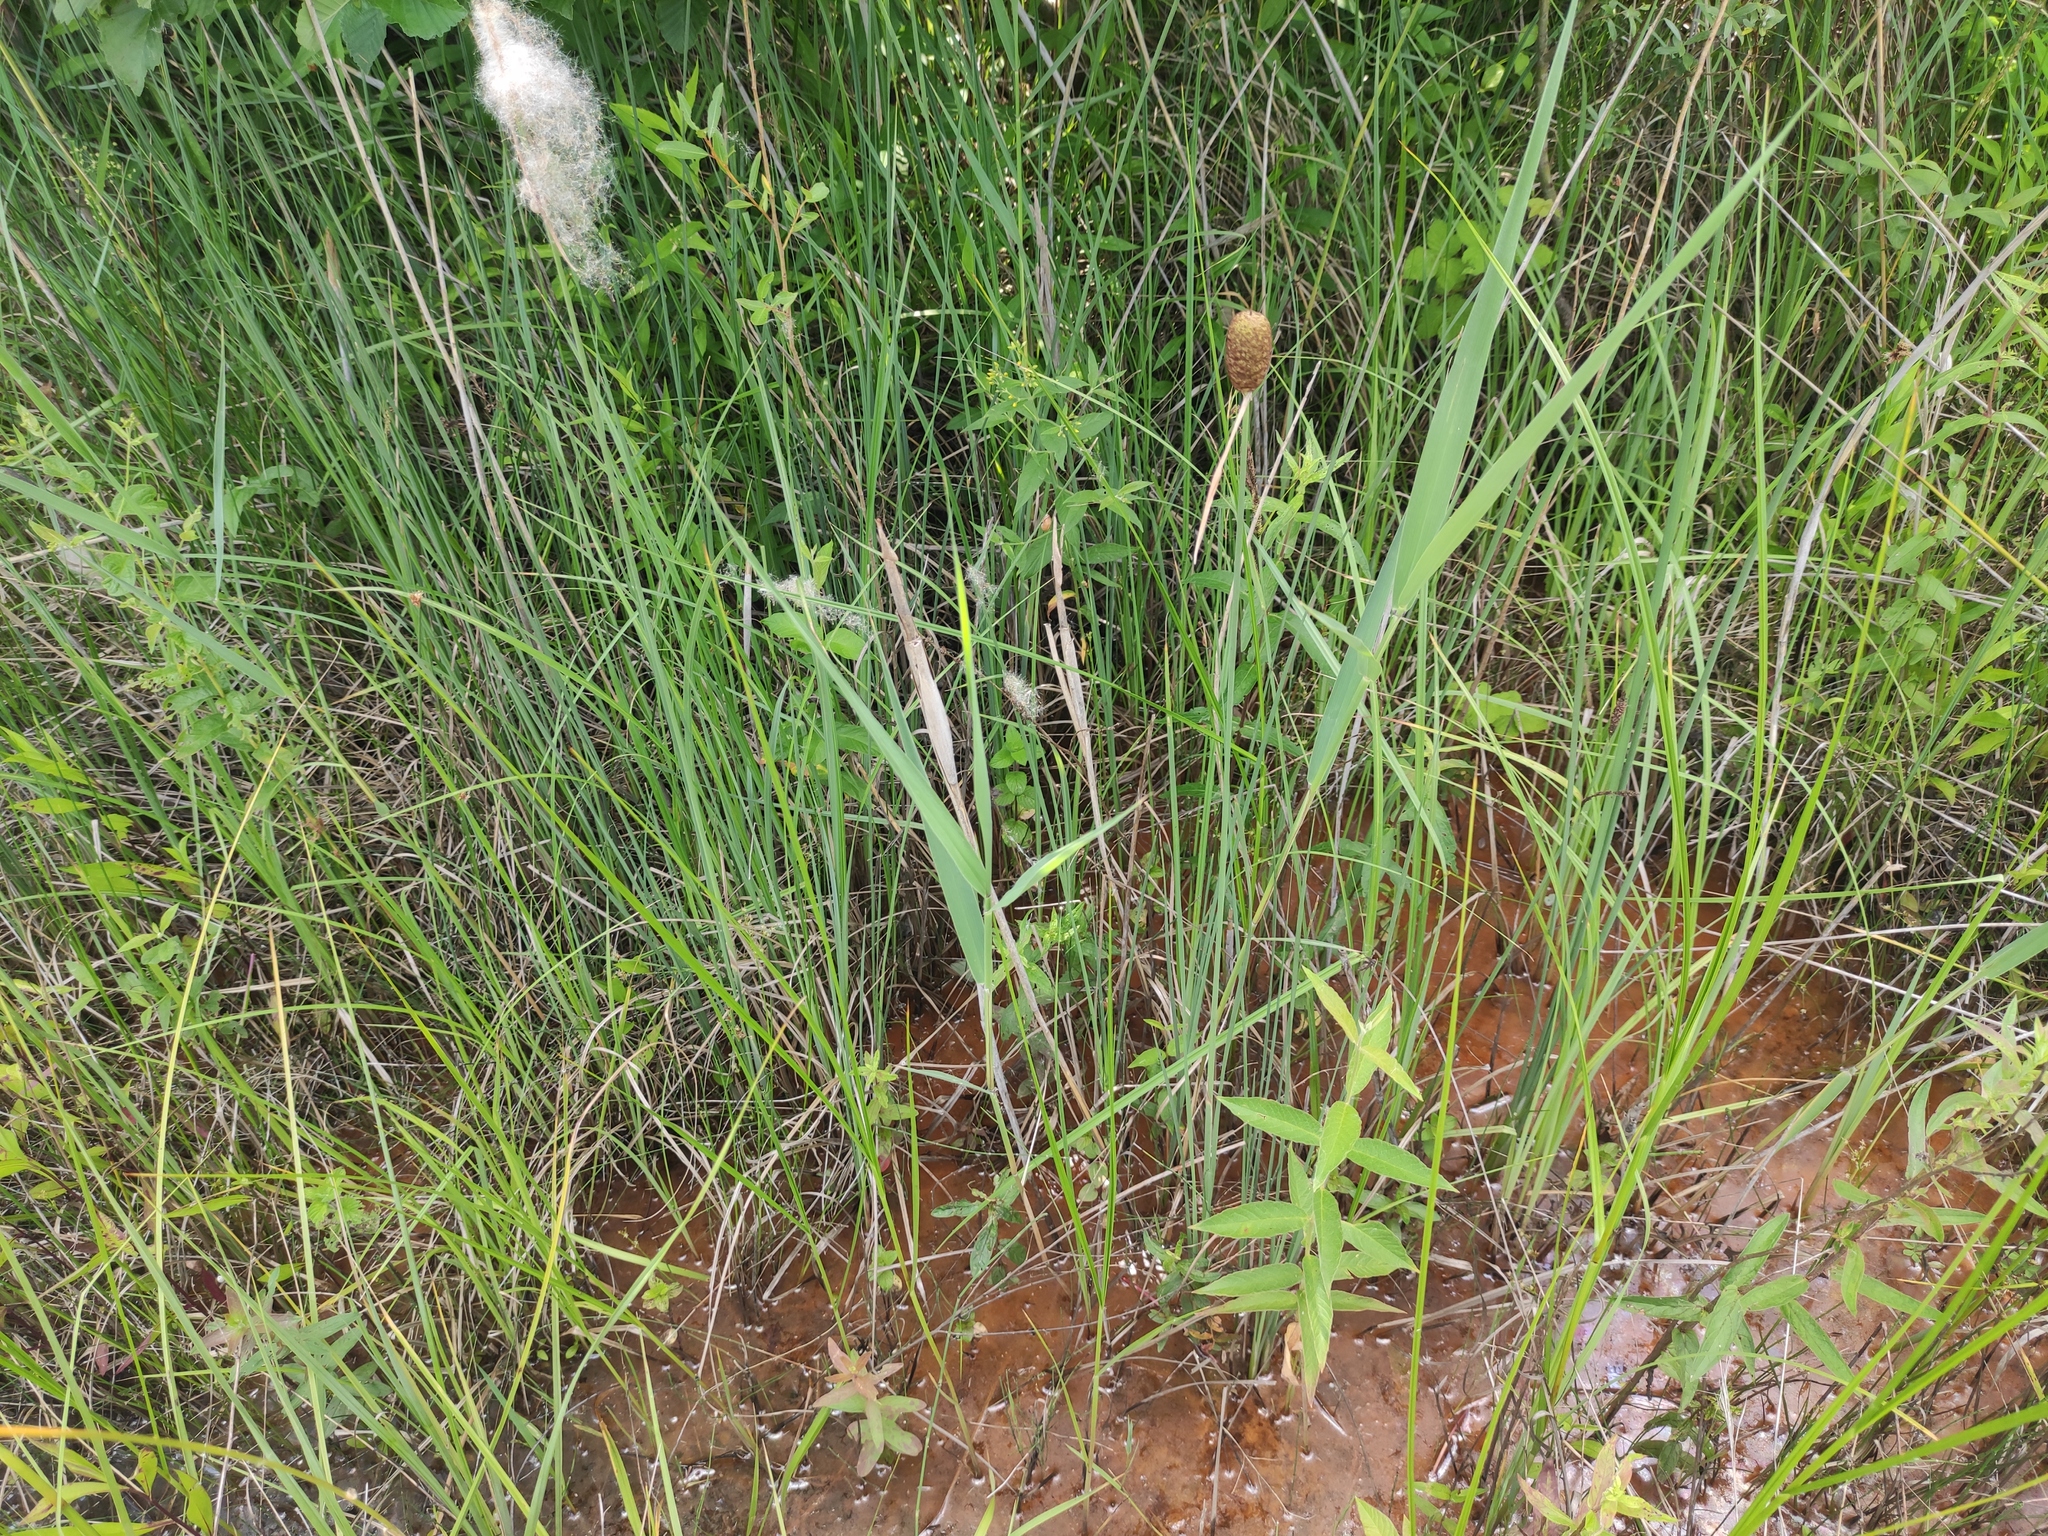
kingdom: Plantae
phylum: Tracheophyta
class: Liliopsida
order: Poales
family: Typhaceae
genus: Typha
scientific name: Typha minima
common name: Dwarf bulrush
